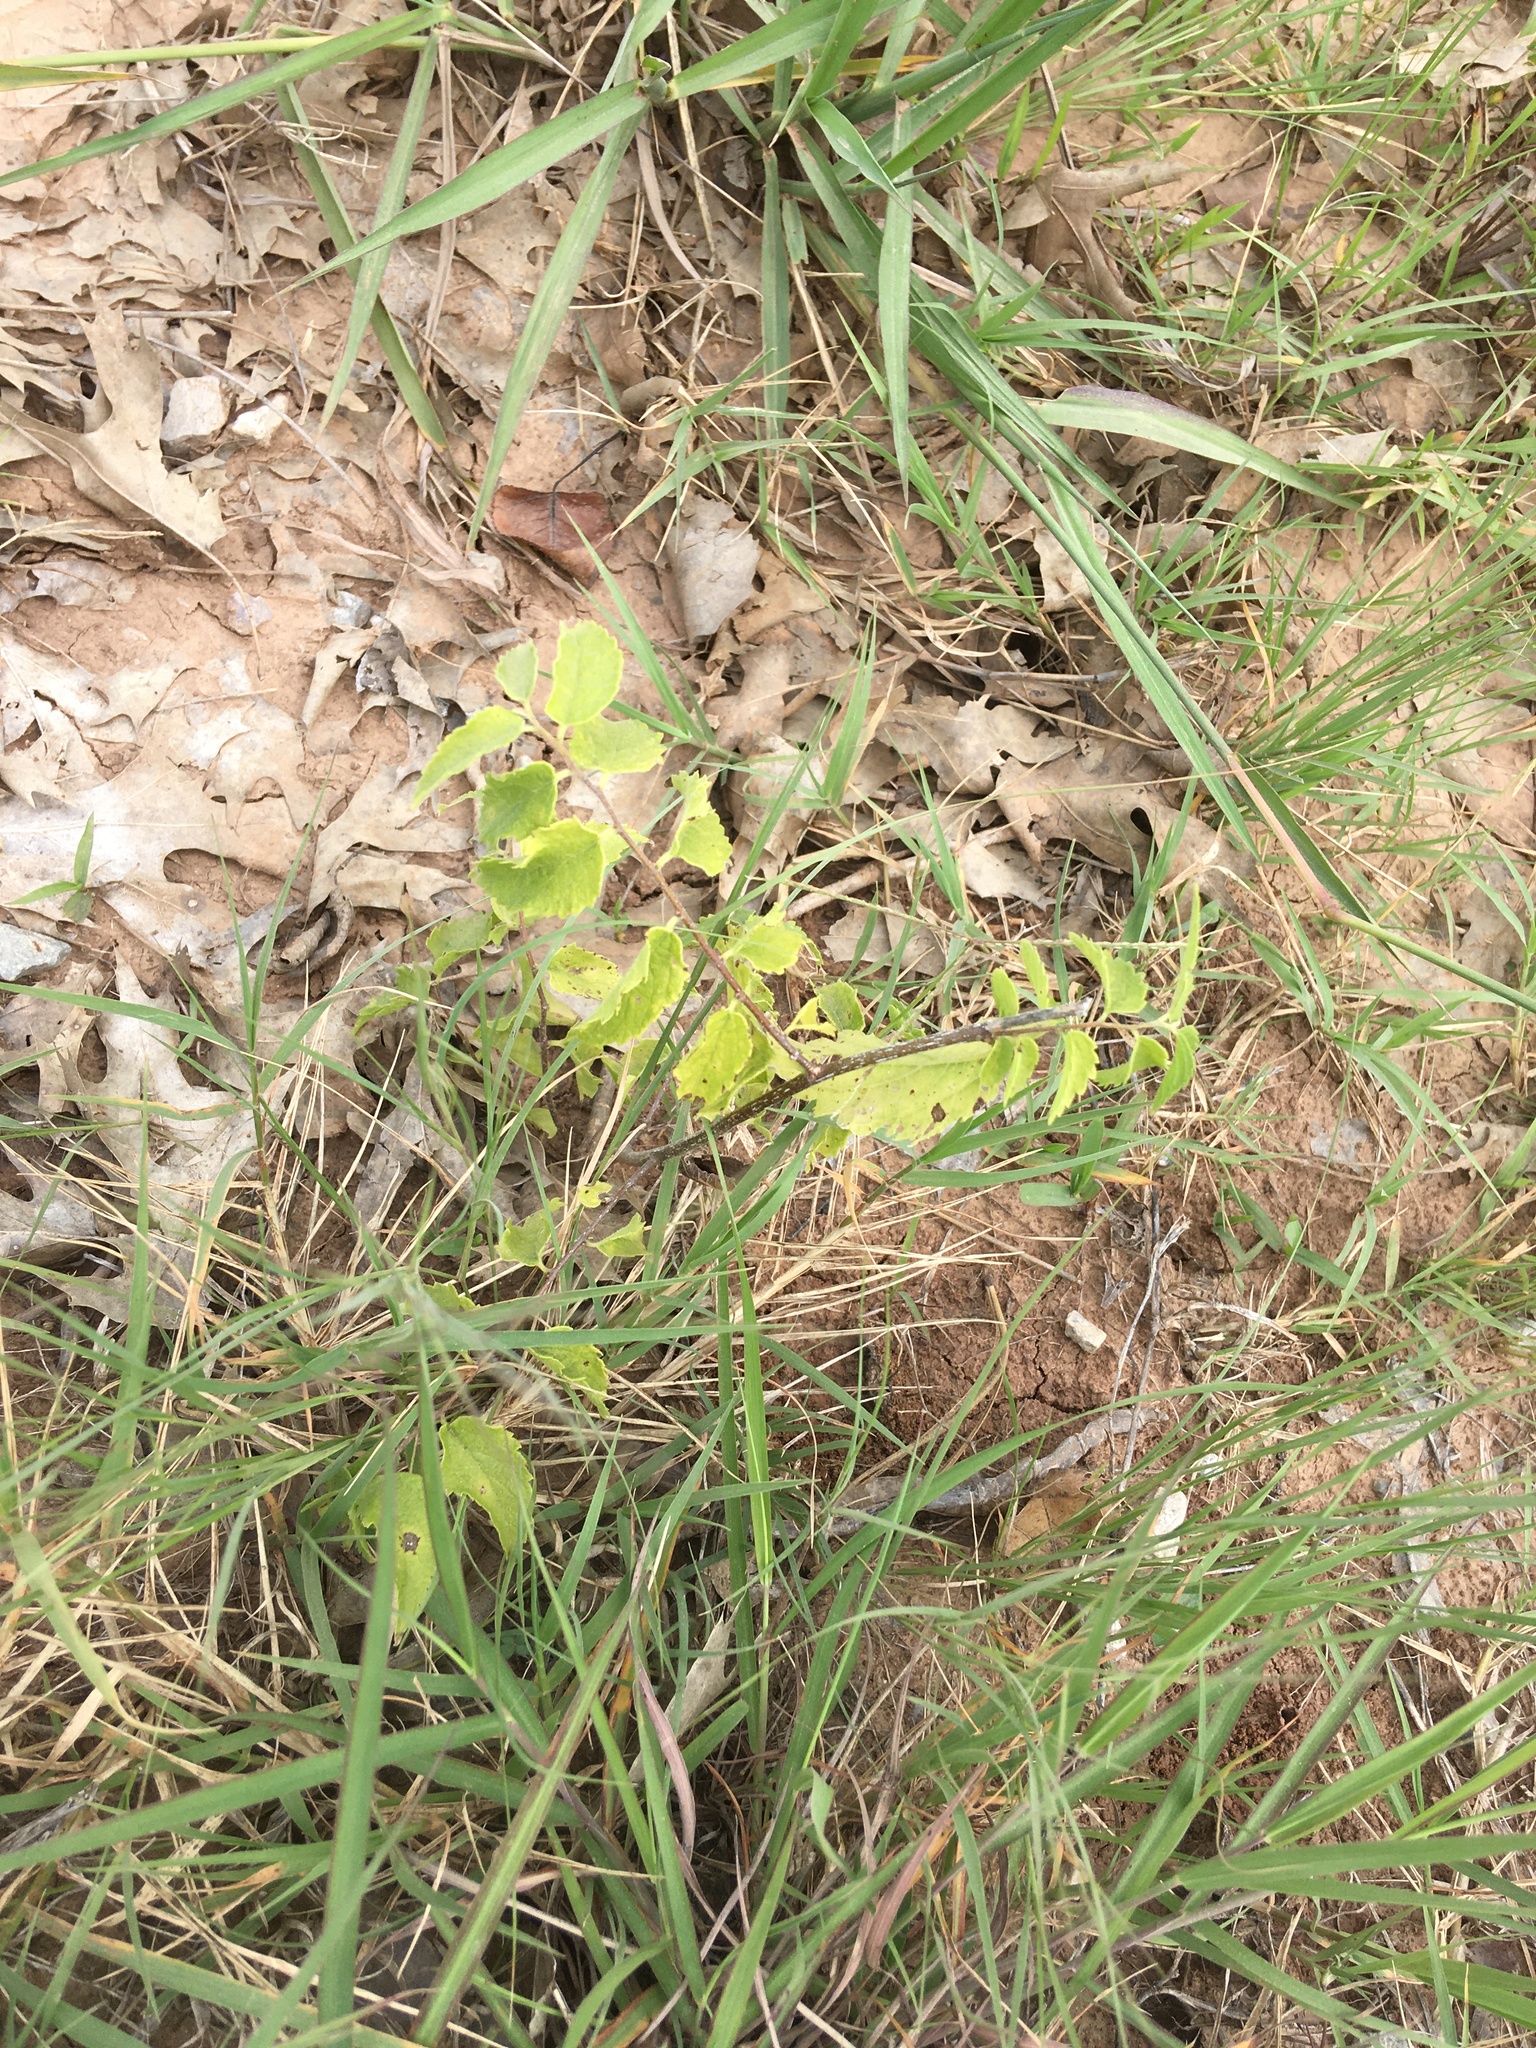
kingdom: Plantae
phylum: Tracheophyta
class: Magnoliopsida
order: Rosales
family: Cannabaceae
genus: Celtis
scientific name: Celtis laevigata
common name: Sugarberry
